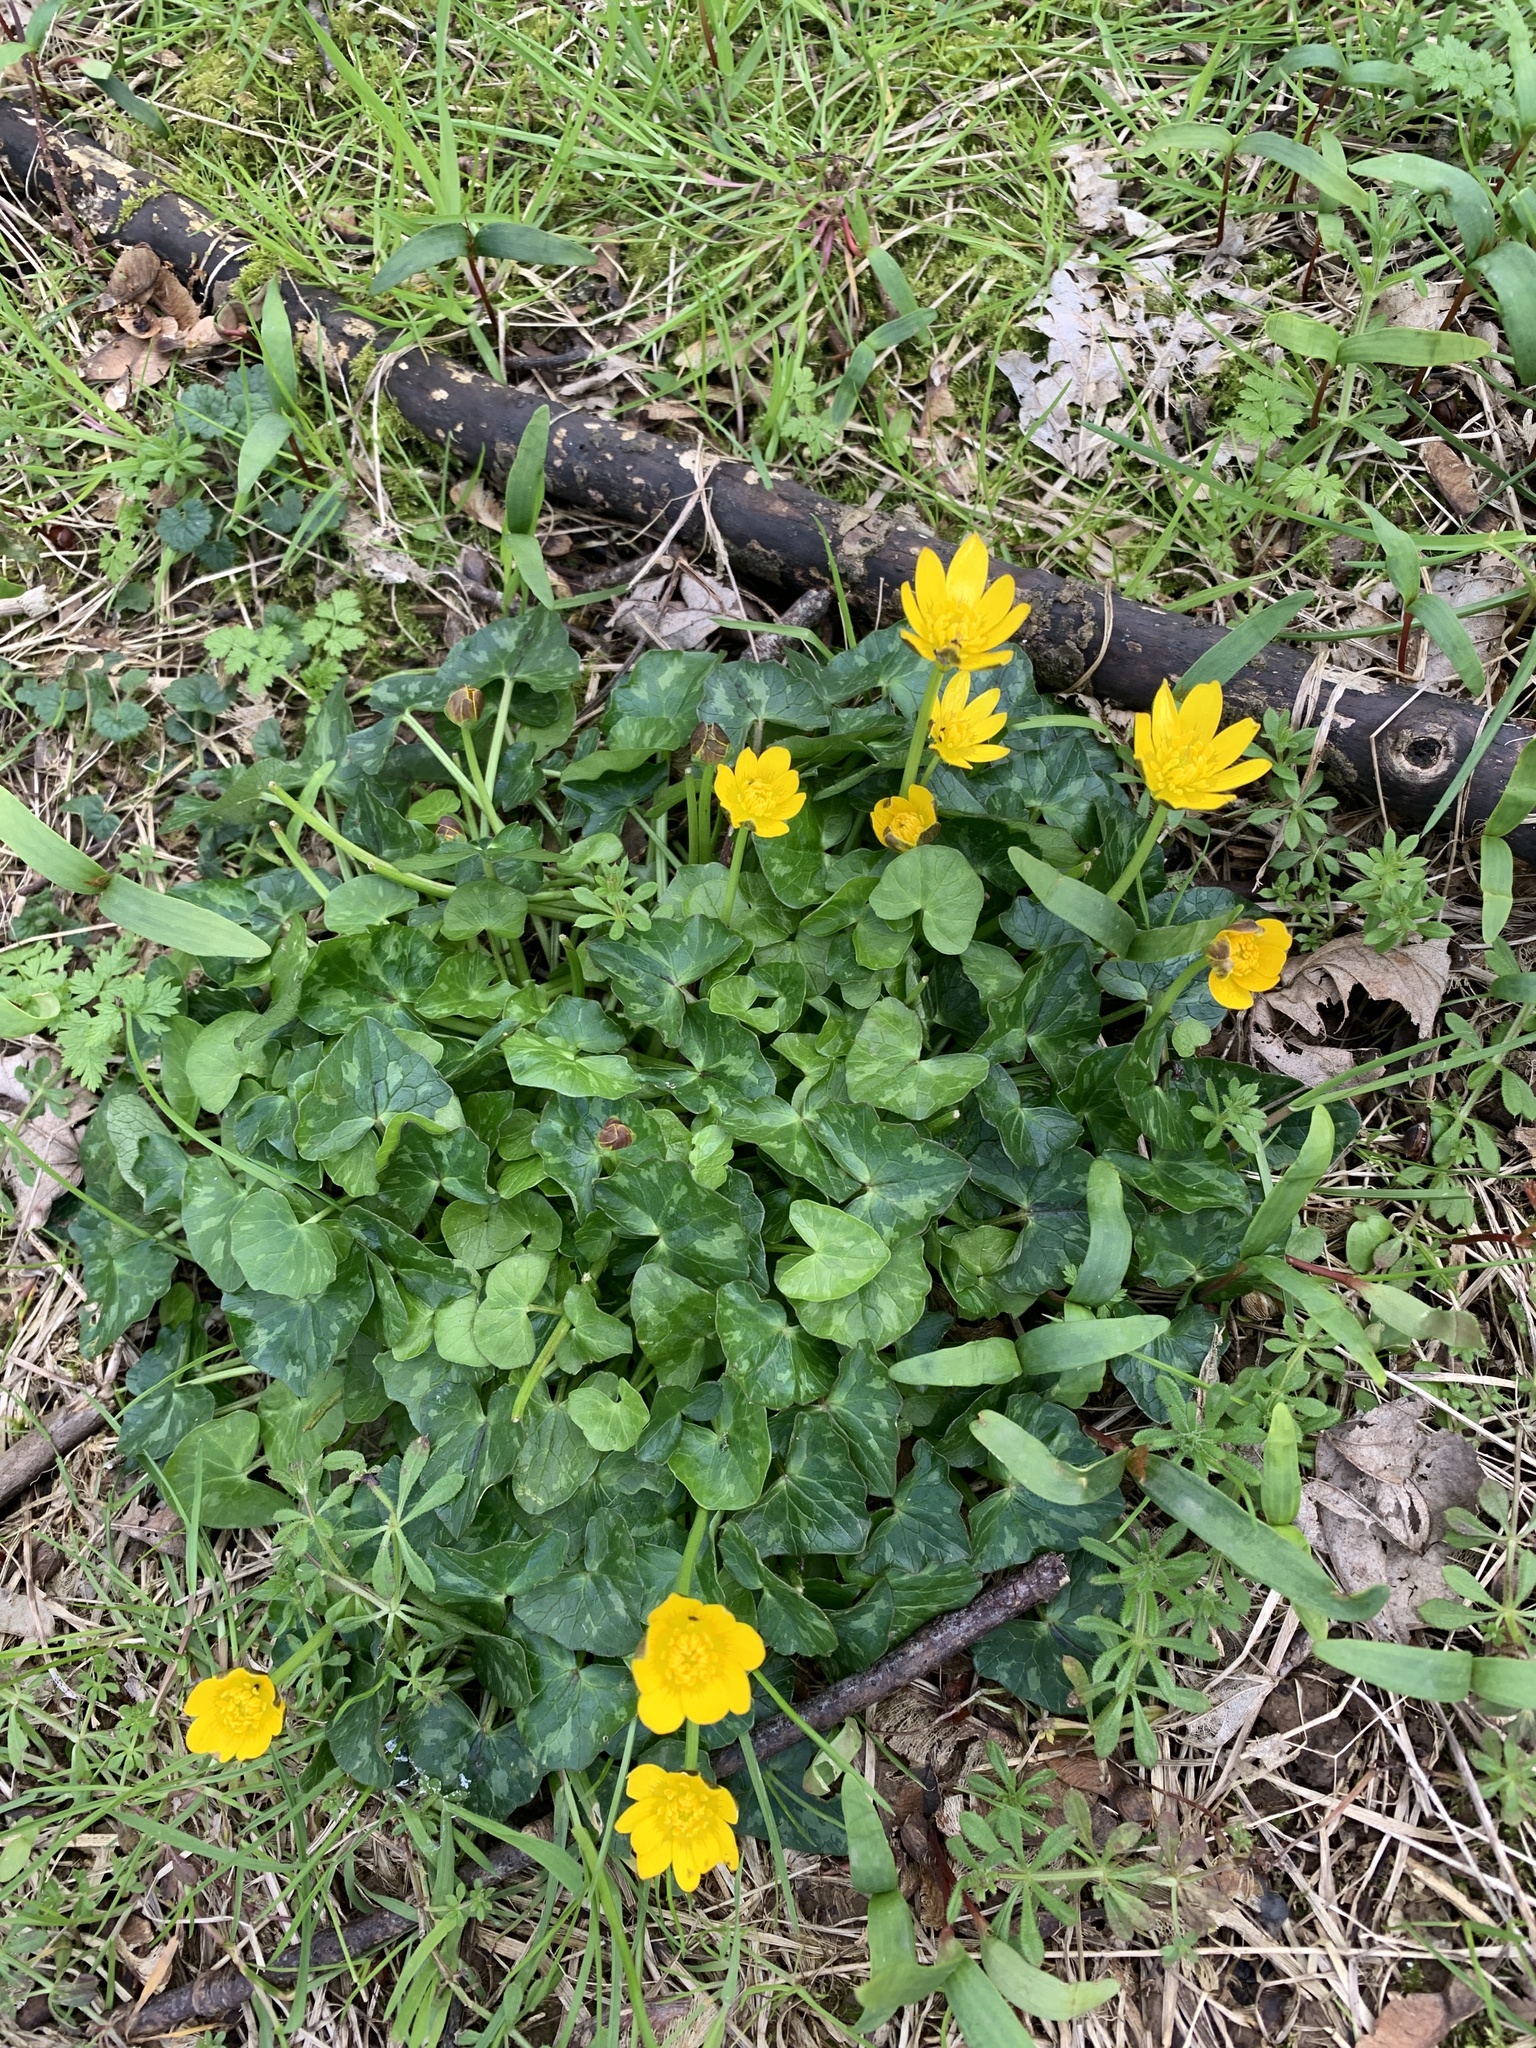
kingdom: Plantae
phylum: Tracheophyta
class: Magnoliopsida
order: Ranunculales
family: Ranunculaceae
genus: Ficaria
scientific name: Ficaria verna
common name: Lesser celandine
